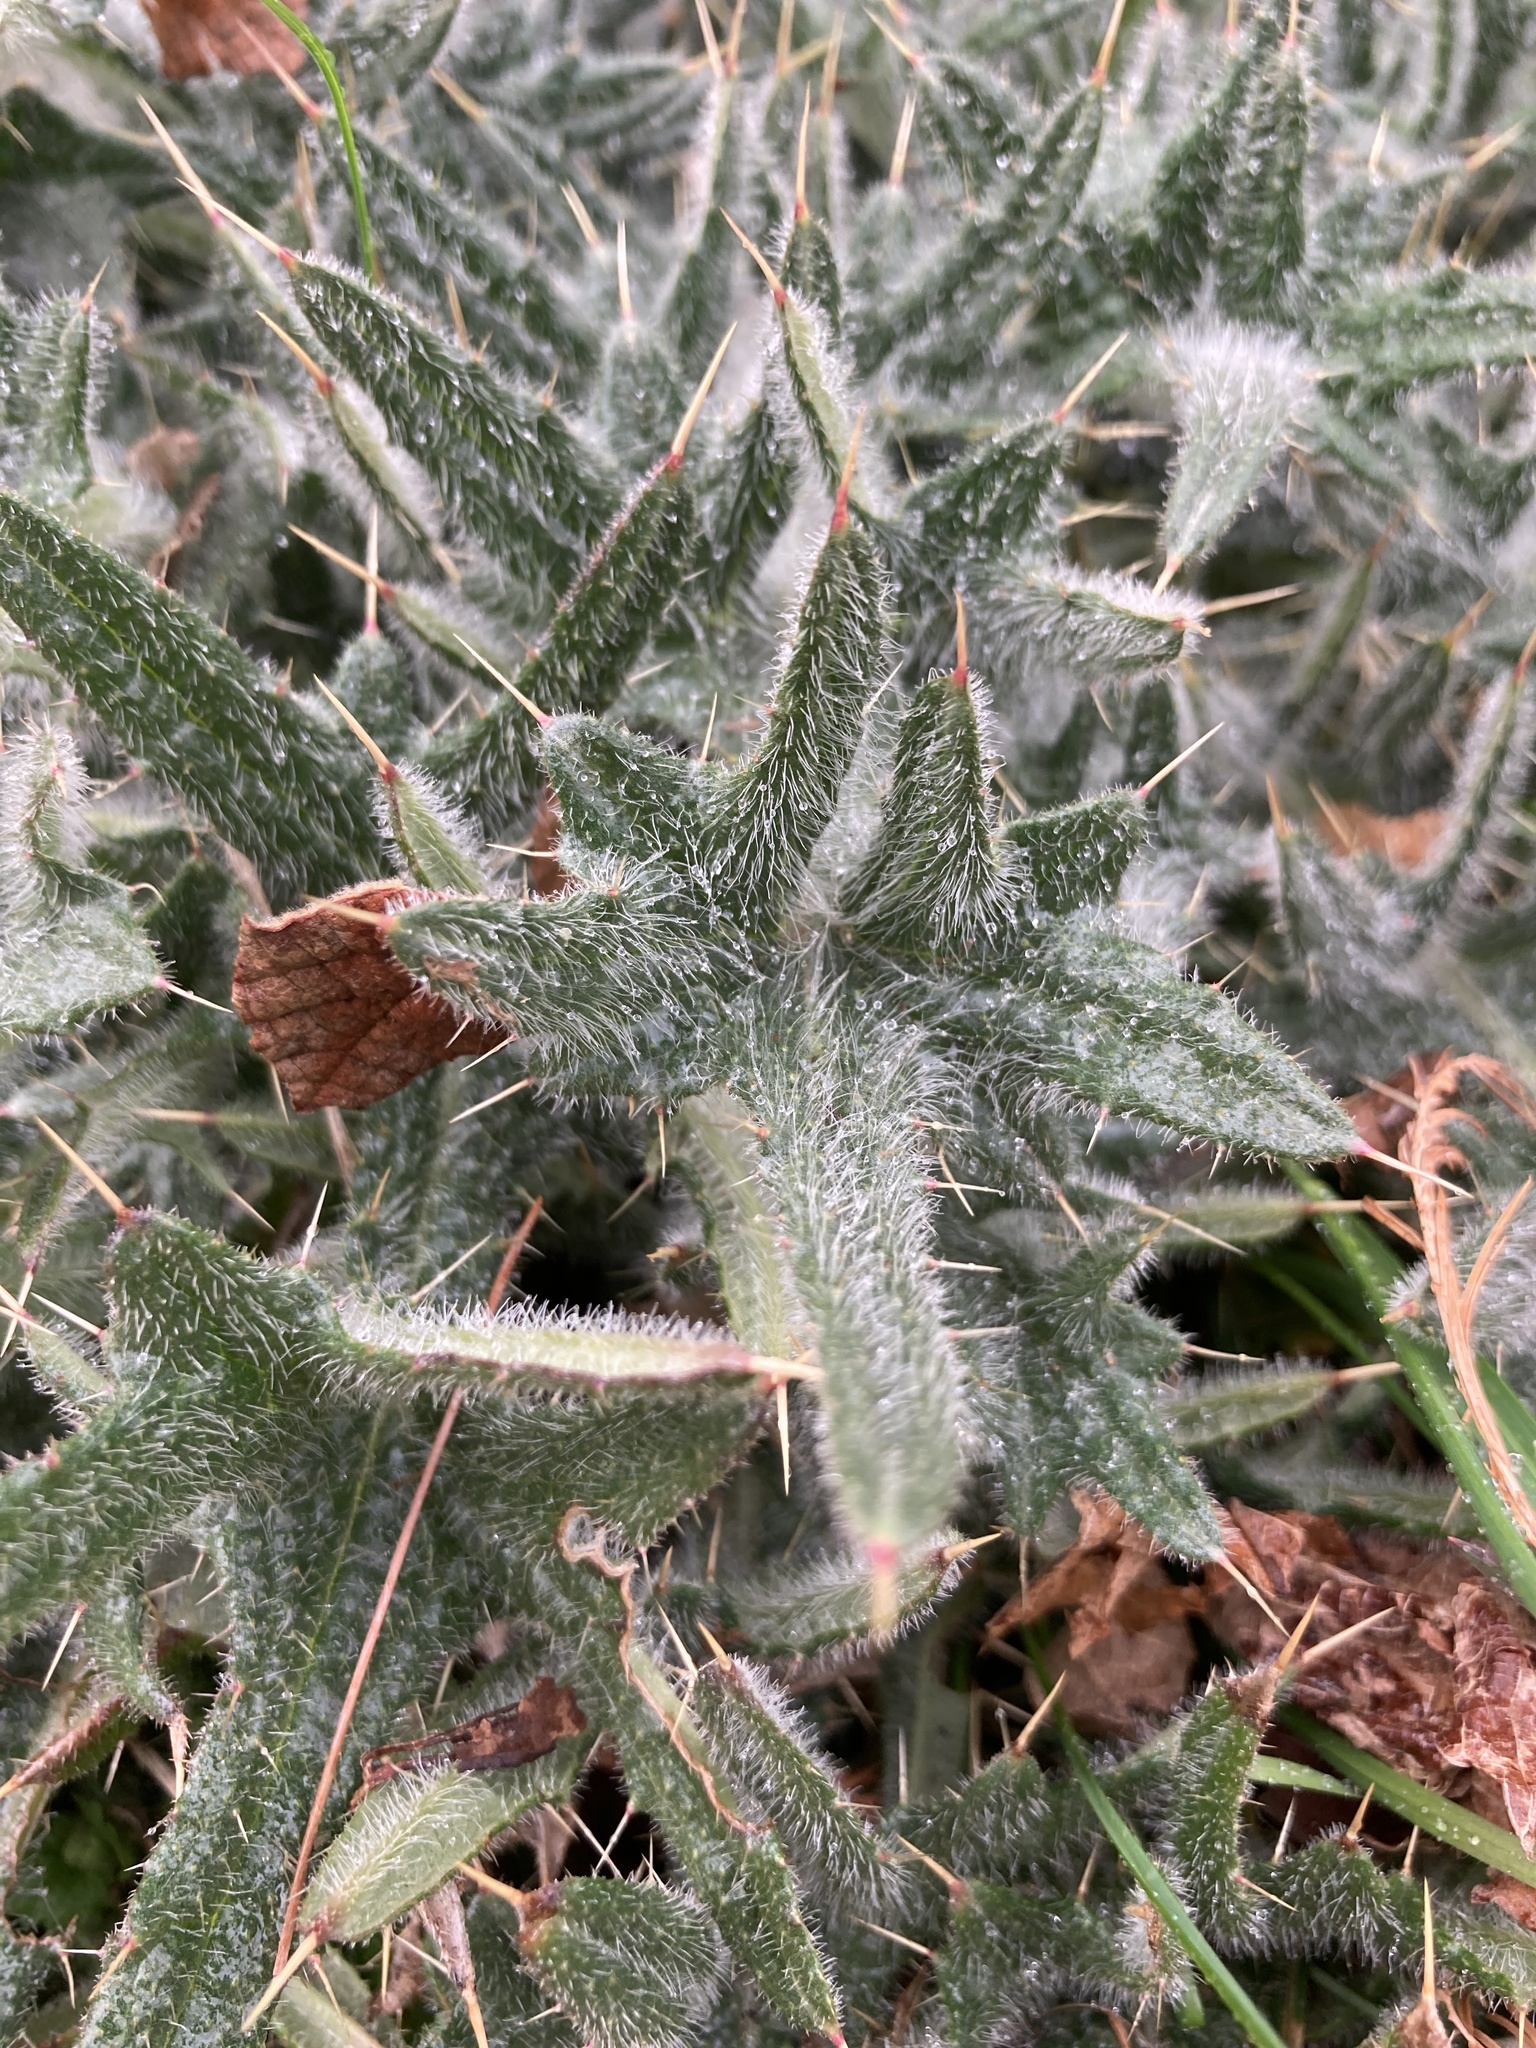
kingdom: Plantae
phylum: Tracheophyta
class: Magnoliopsida
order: Asterales
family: Asteraceae
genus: Cirsium
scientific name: Cirsium vulgare
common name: Bull thistle
